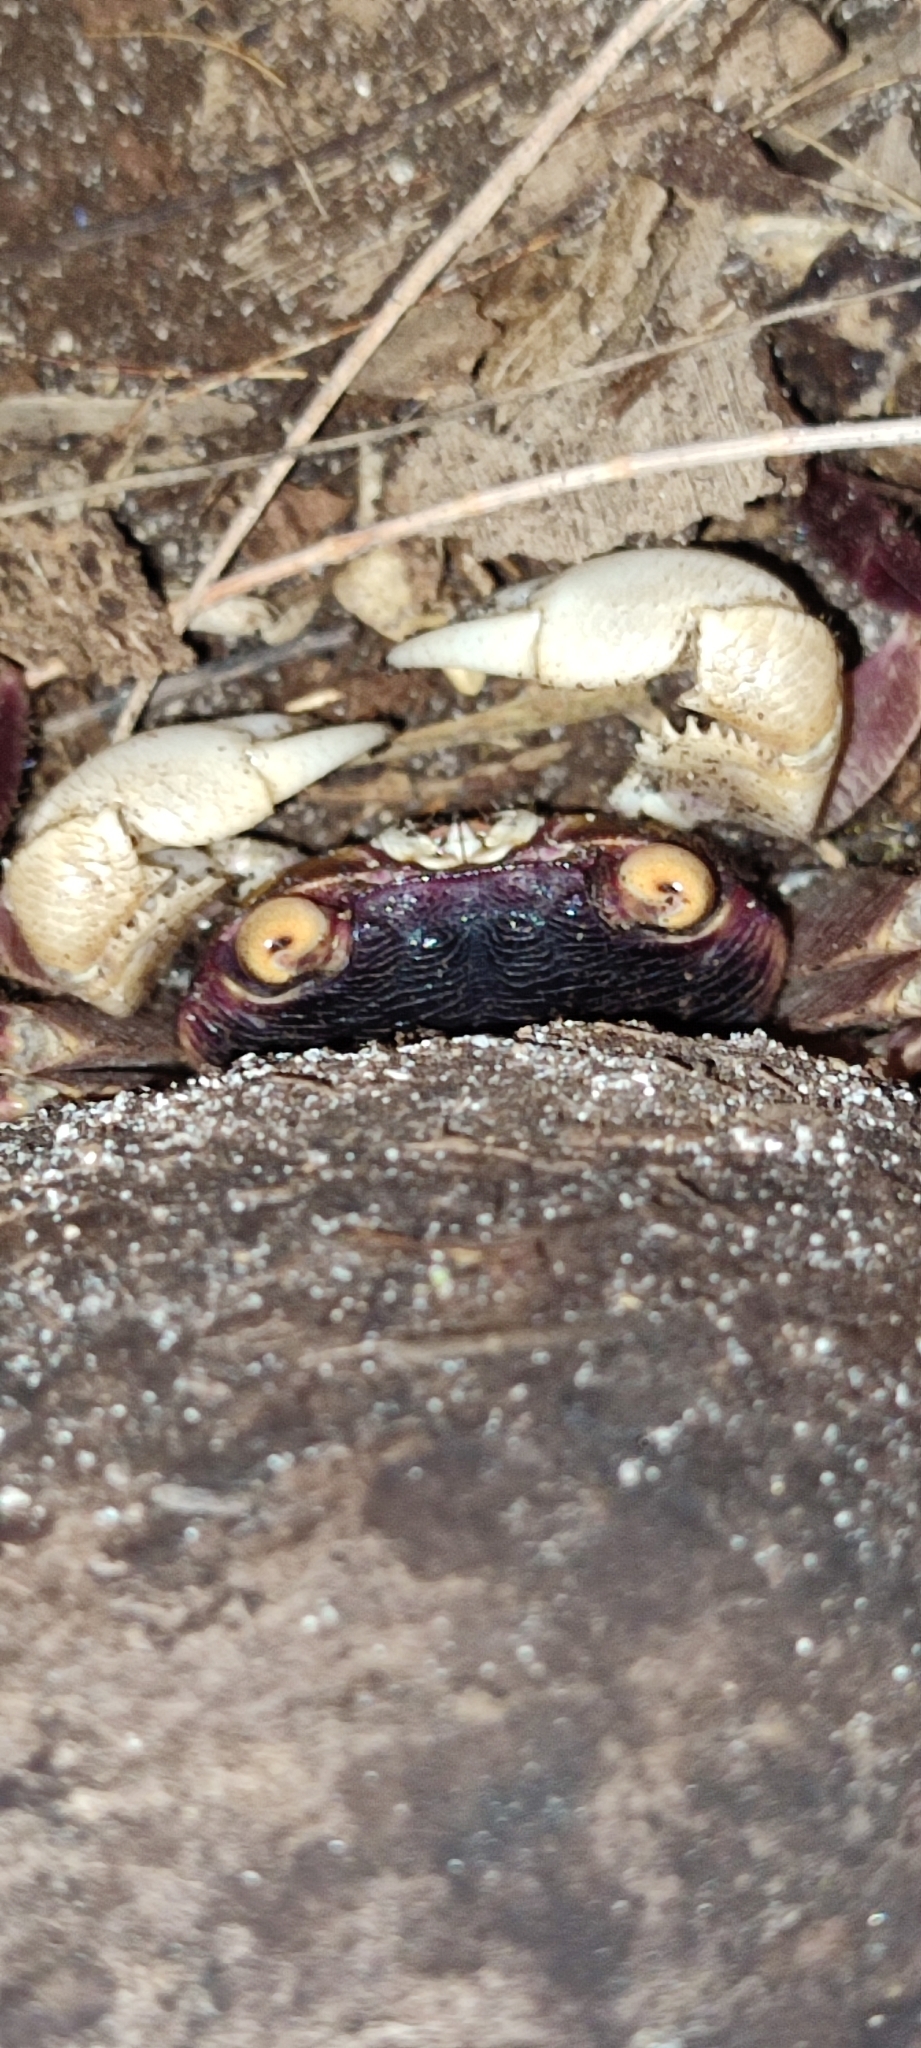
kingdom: Animalia
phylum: Arthropoda
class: Malacostraca
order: Decapoda
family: Grapsidae
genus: Geograpsus
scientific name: Geograpsus grayi
